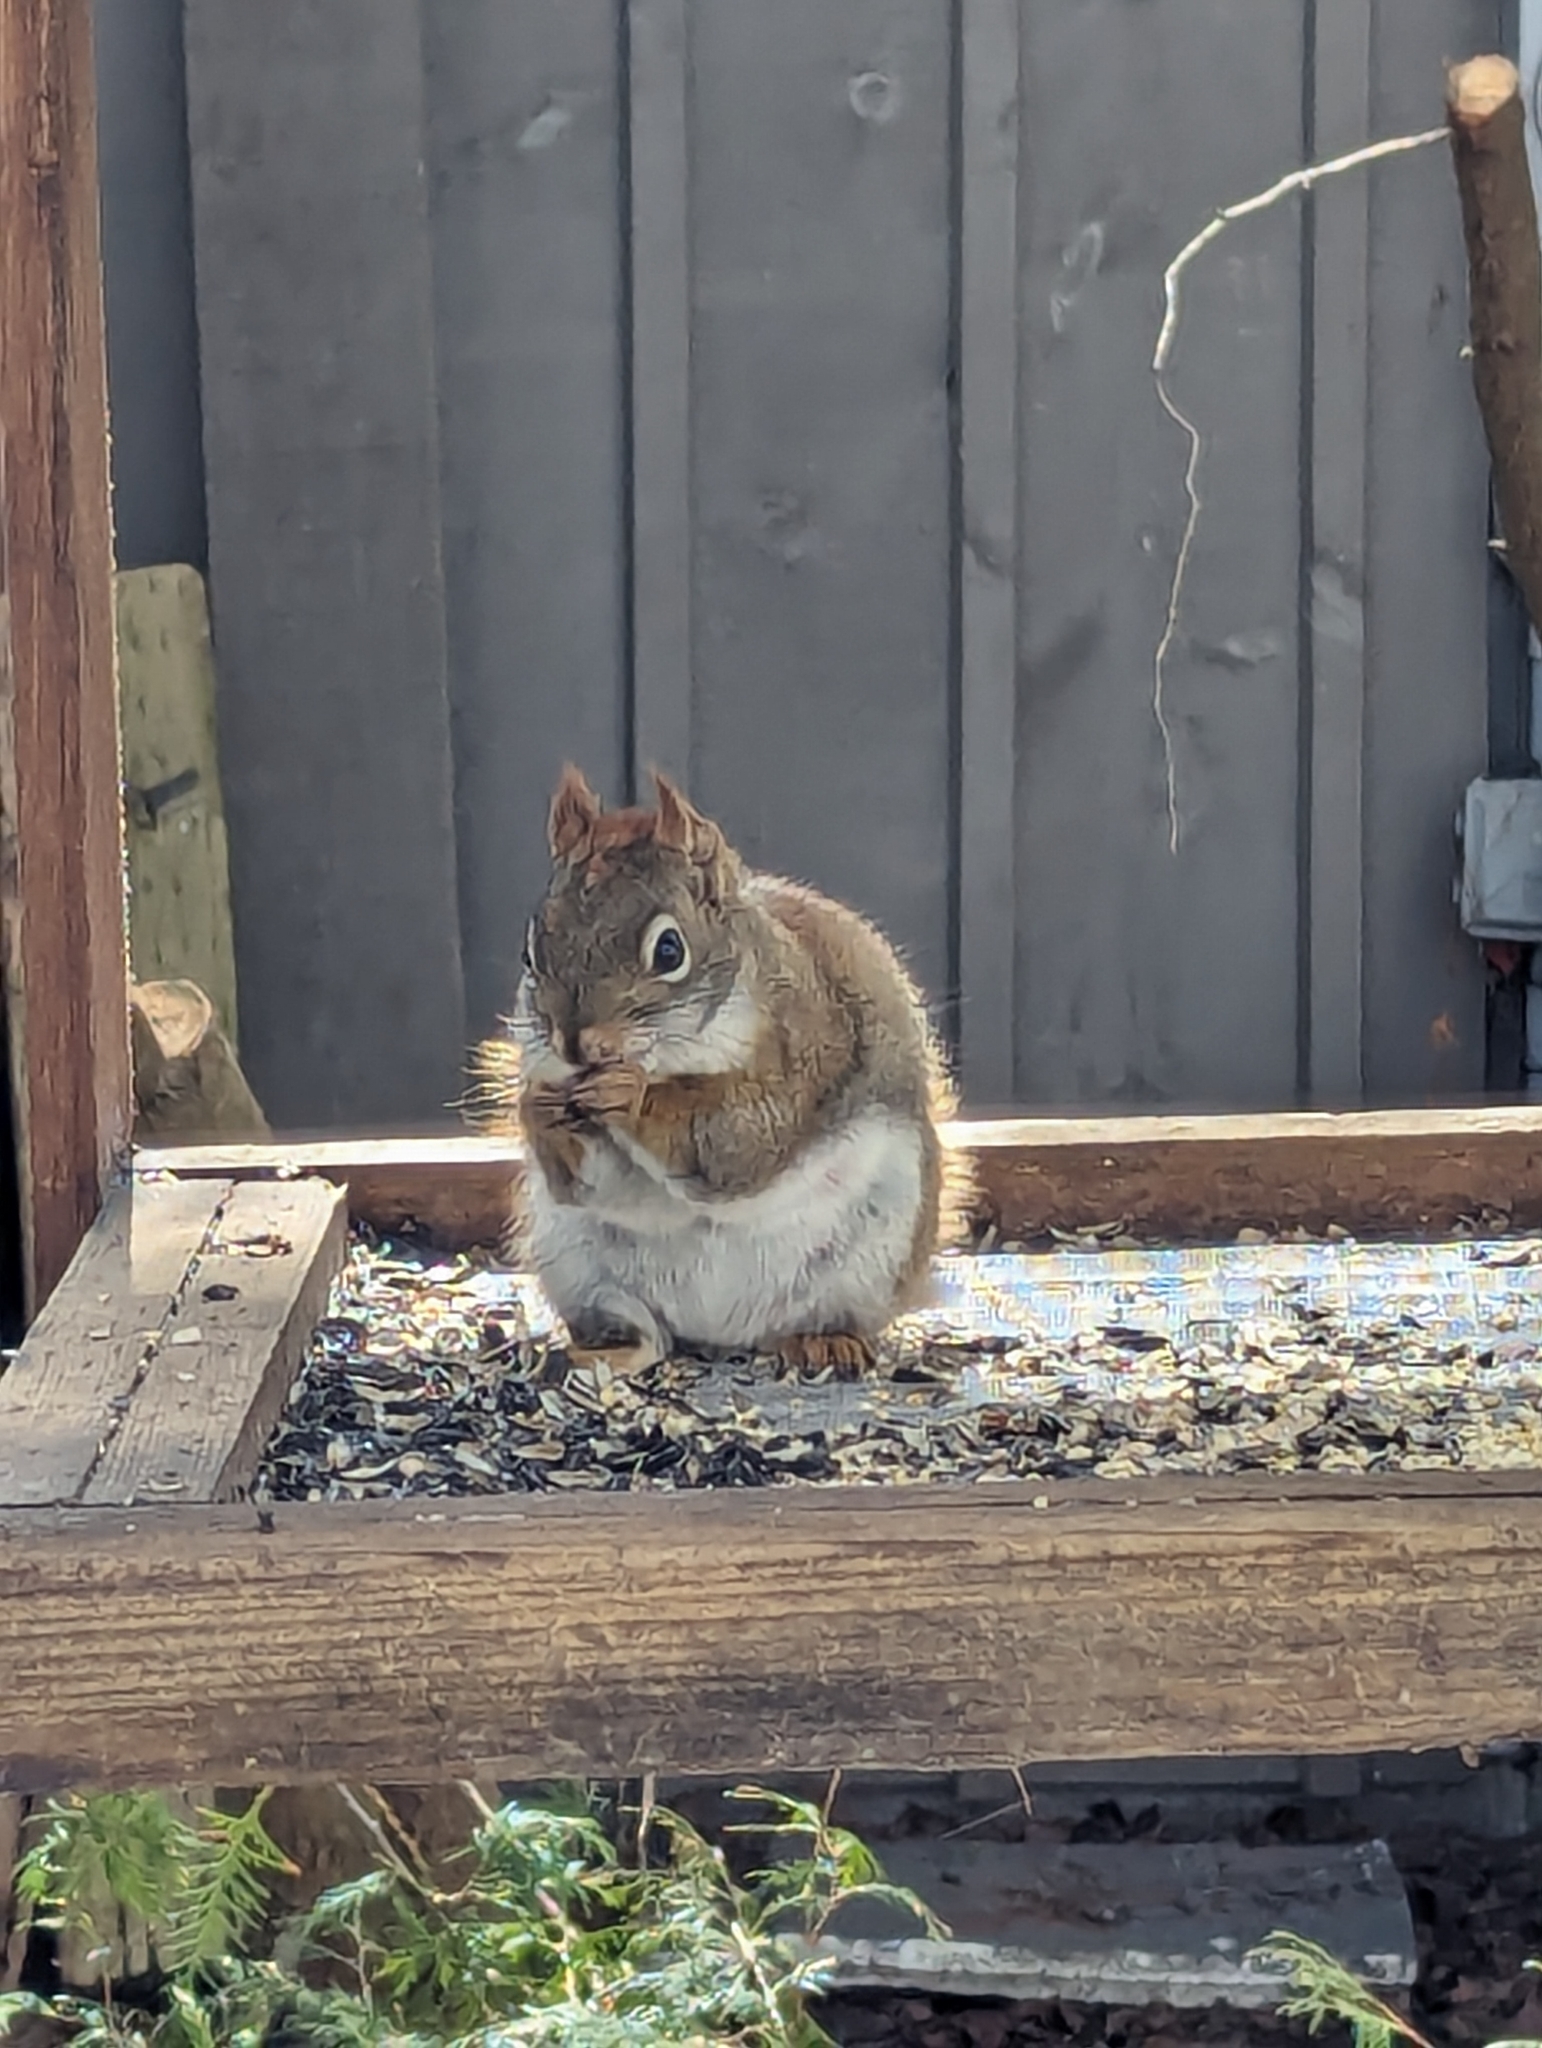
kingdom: Animalia
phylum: Chordata
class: Mammalia
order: Rodentia
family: Sciuridae
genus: Tamiasciurus
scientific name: Tamiasciurus hudsonicus
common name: Red squirrel
